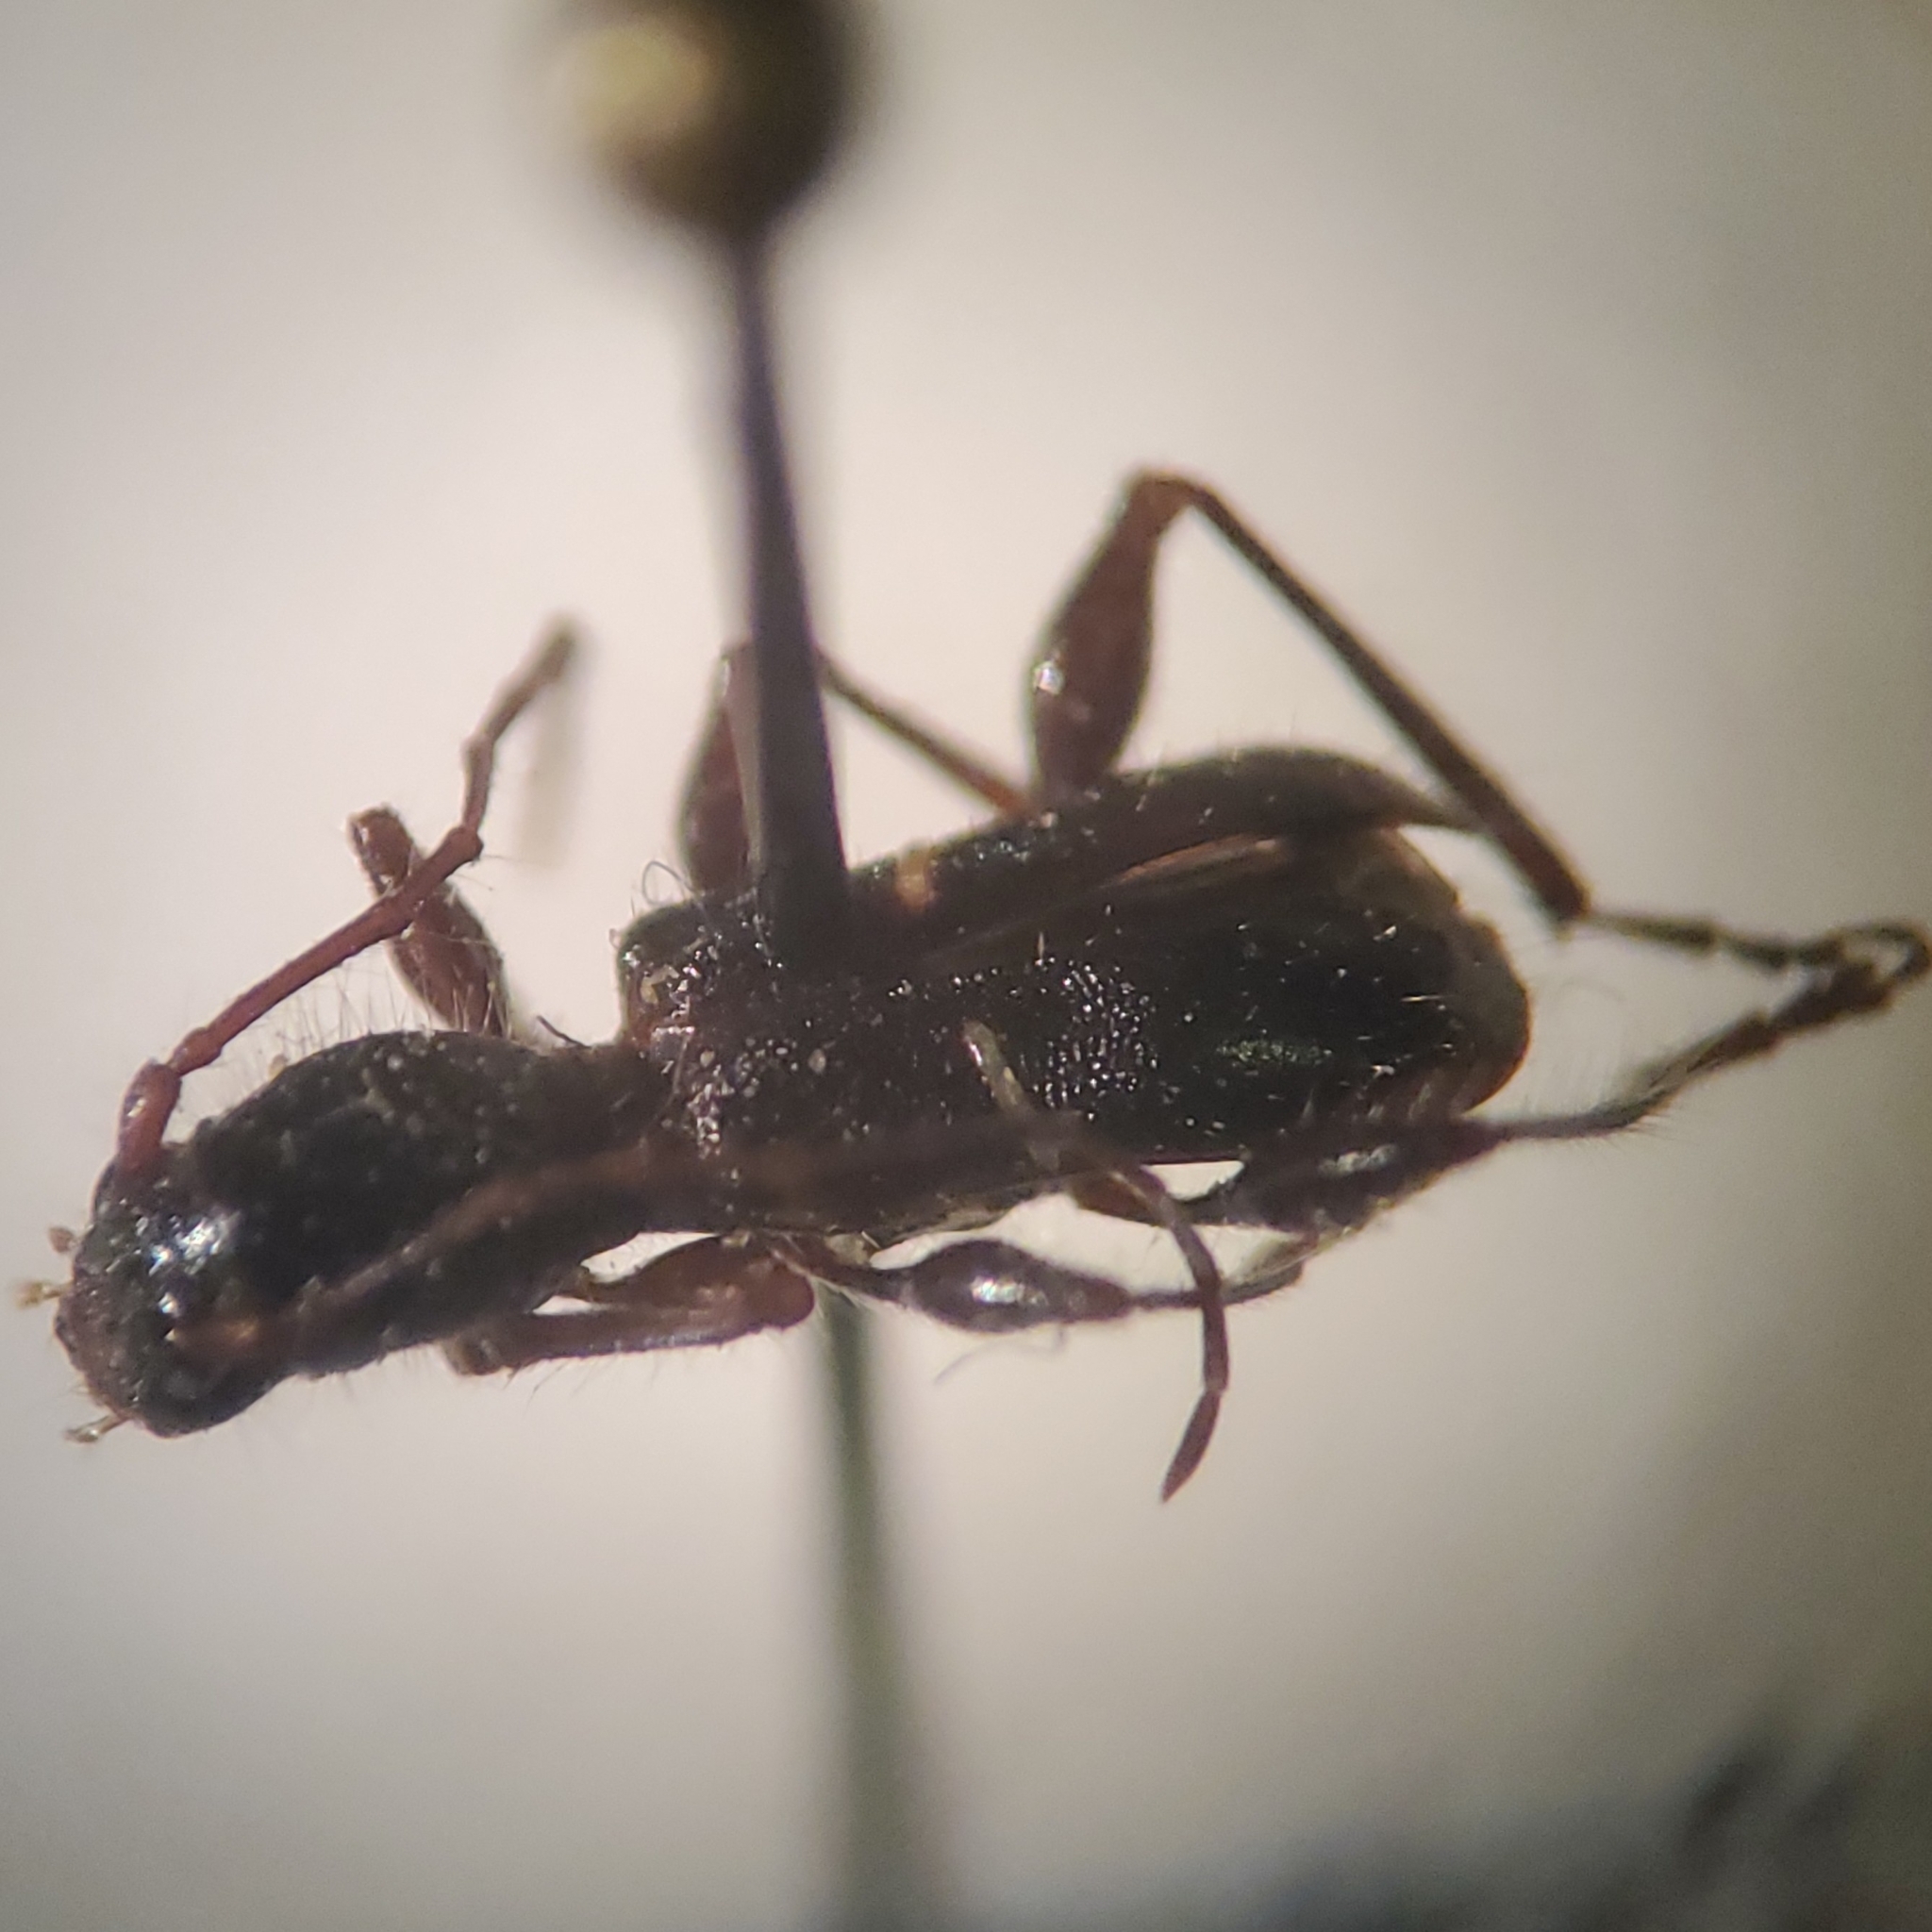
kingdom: Animalia
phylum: Arthropoda
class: Insecta
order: Coleoptera
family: Cerambycidae
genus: Euderces
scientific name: Euderces picipes
